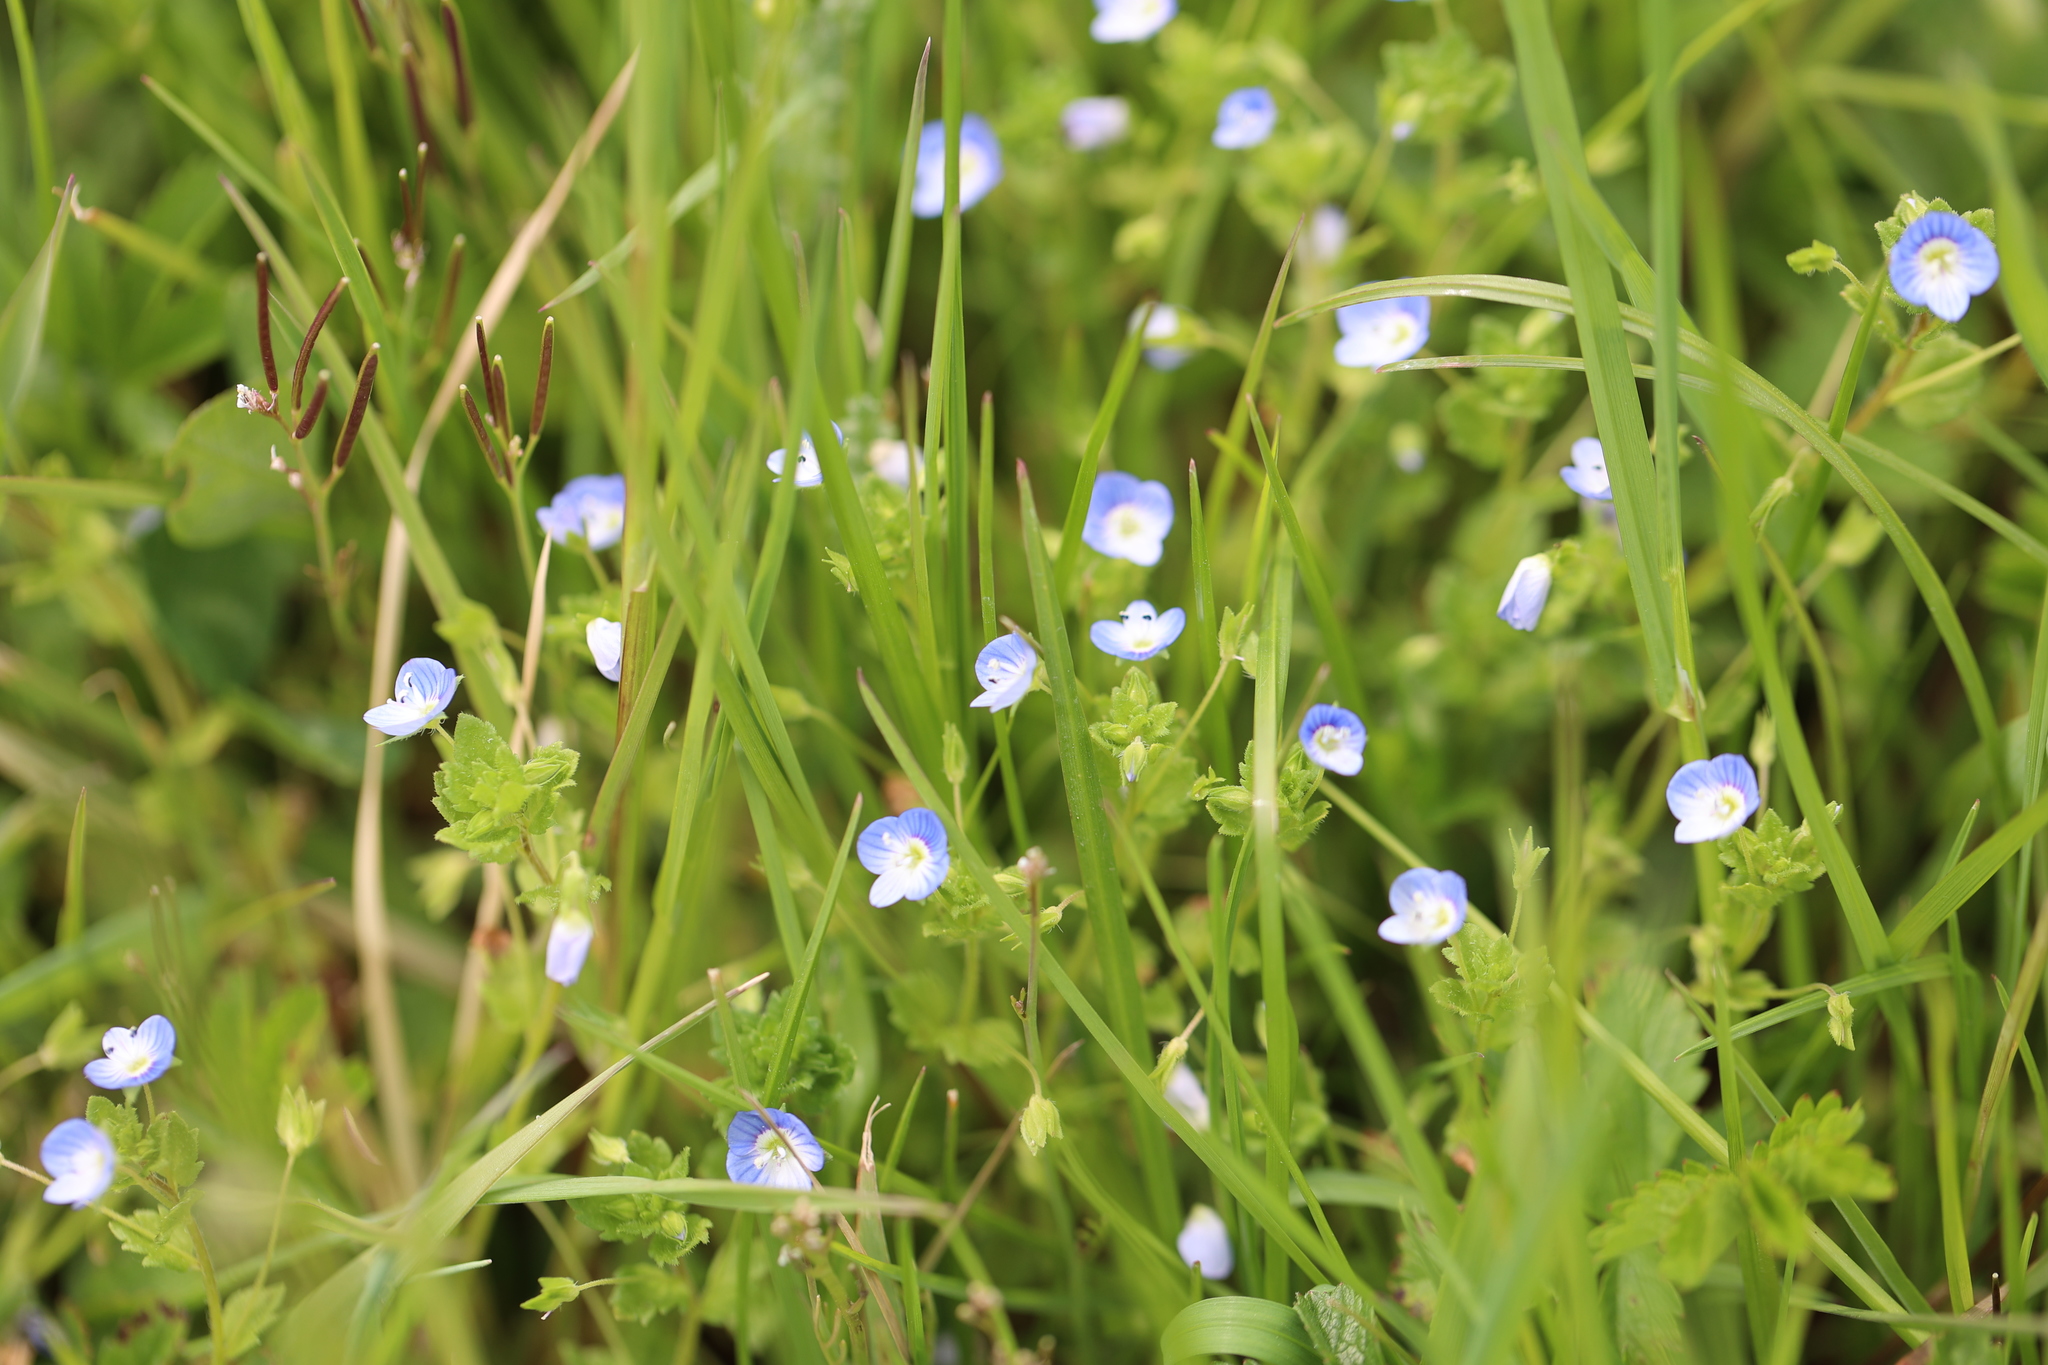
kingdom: Plantae
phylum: Tracheophyta
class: Magnoliopsida
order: Lamiales
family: Plantaginaceae
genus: Veronica
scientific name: Veronica persica
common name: Common field-speedwell
